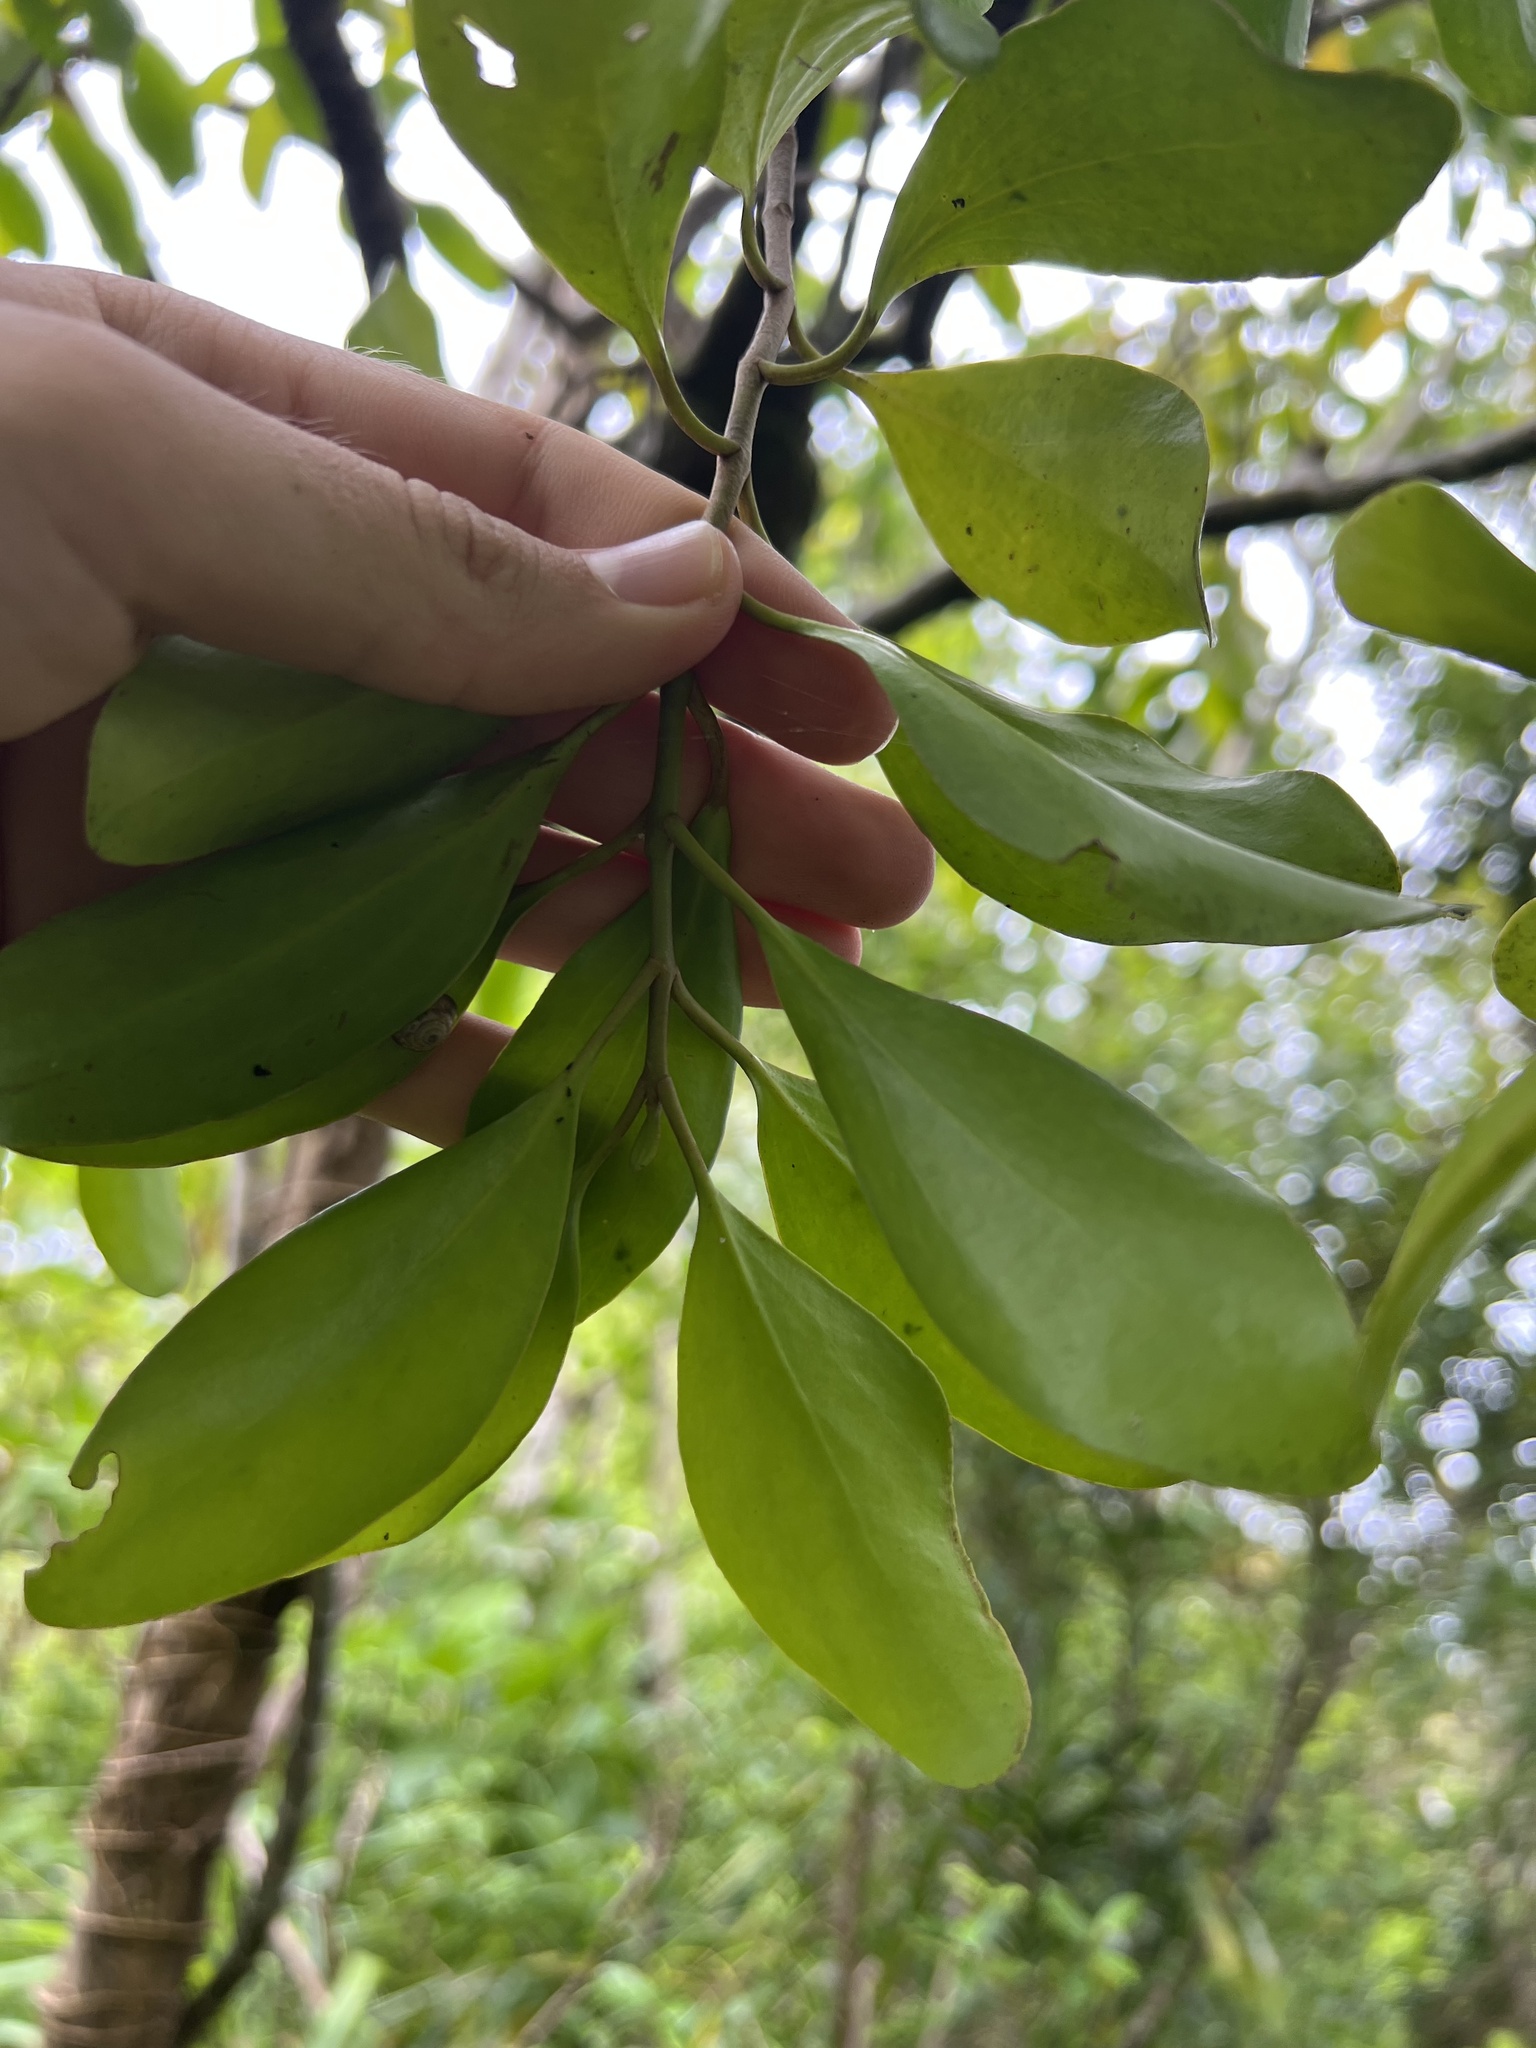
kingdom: Plantae
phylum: Tracheophyta
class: Magnoliopsida
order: Santalales
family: Loranthaceae
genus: Decaisnina
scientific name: Decaisnina forsteriana
